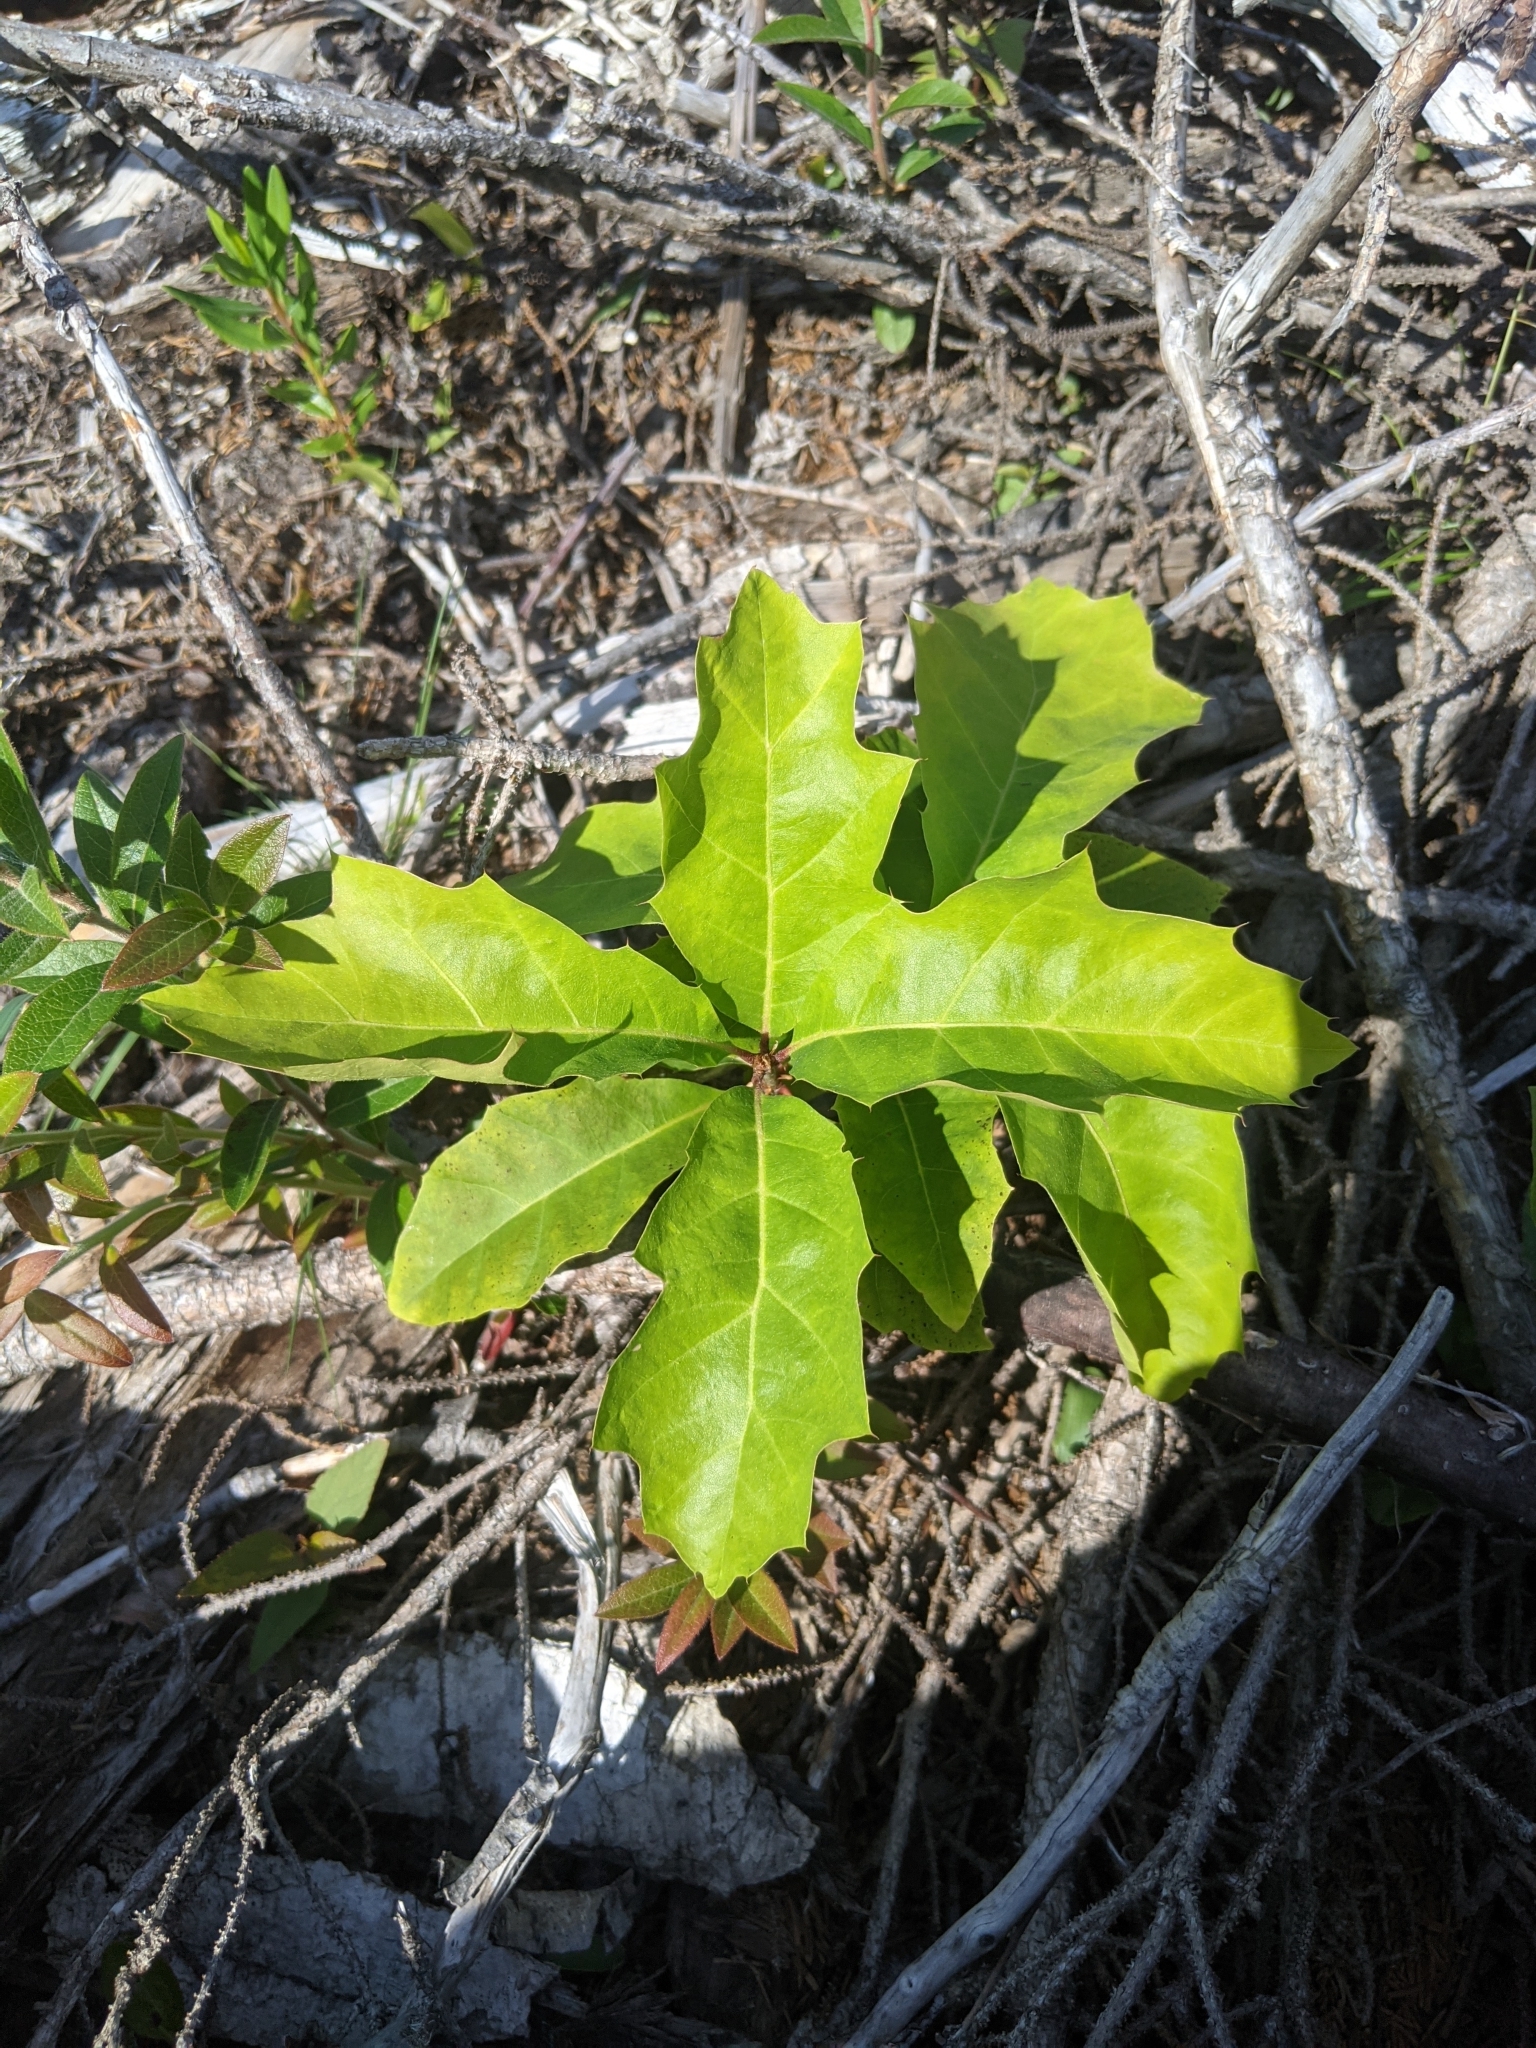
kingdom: Plantae
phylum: Tracheophyta
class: Magnoliopsida
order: Fagales
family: Fagaceae
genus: Quercus
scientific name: Quercus rubra
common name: Red oak
